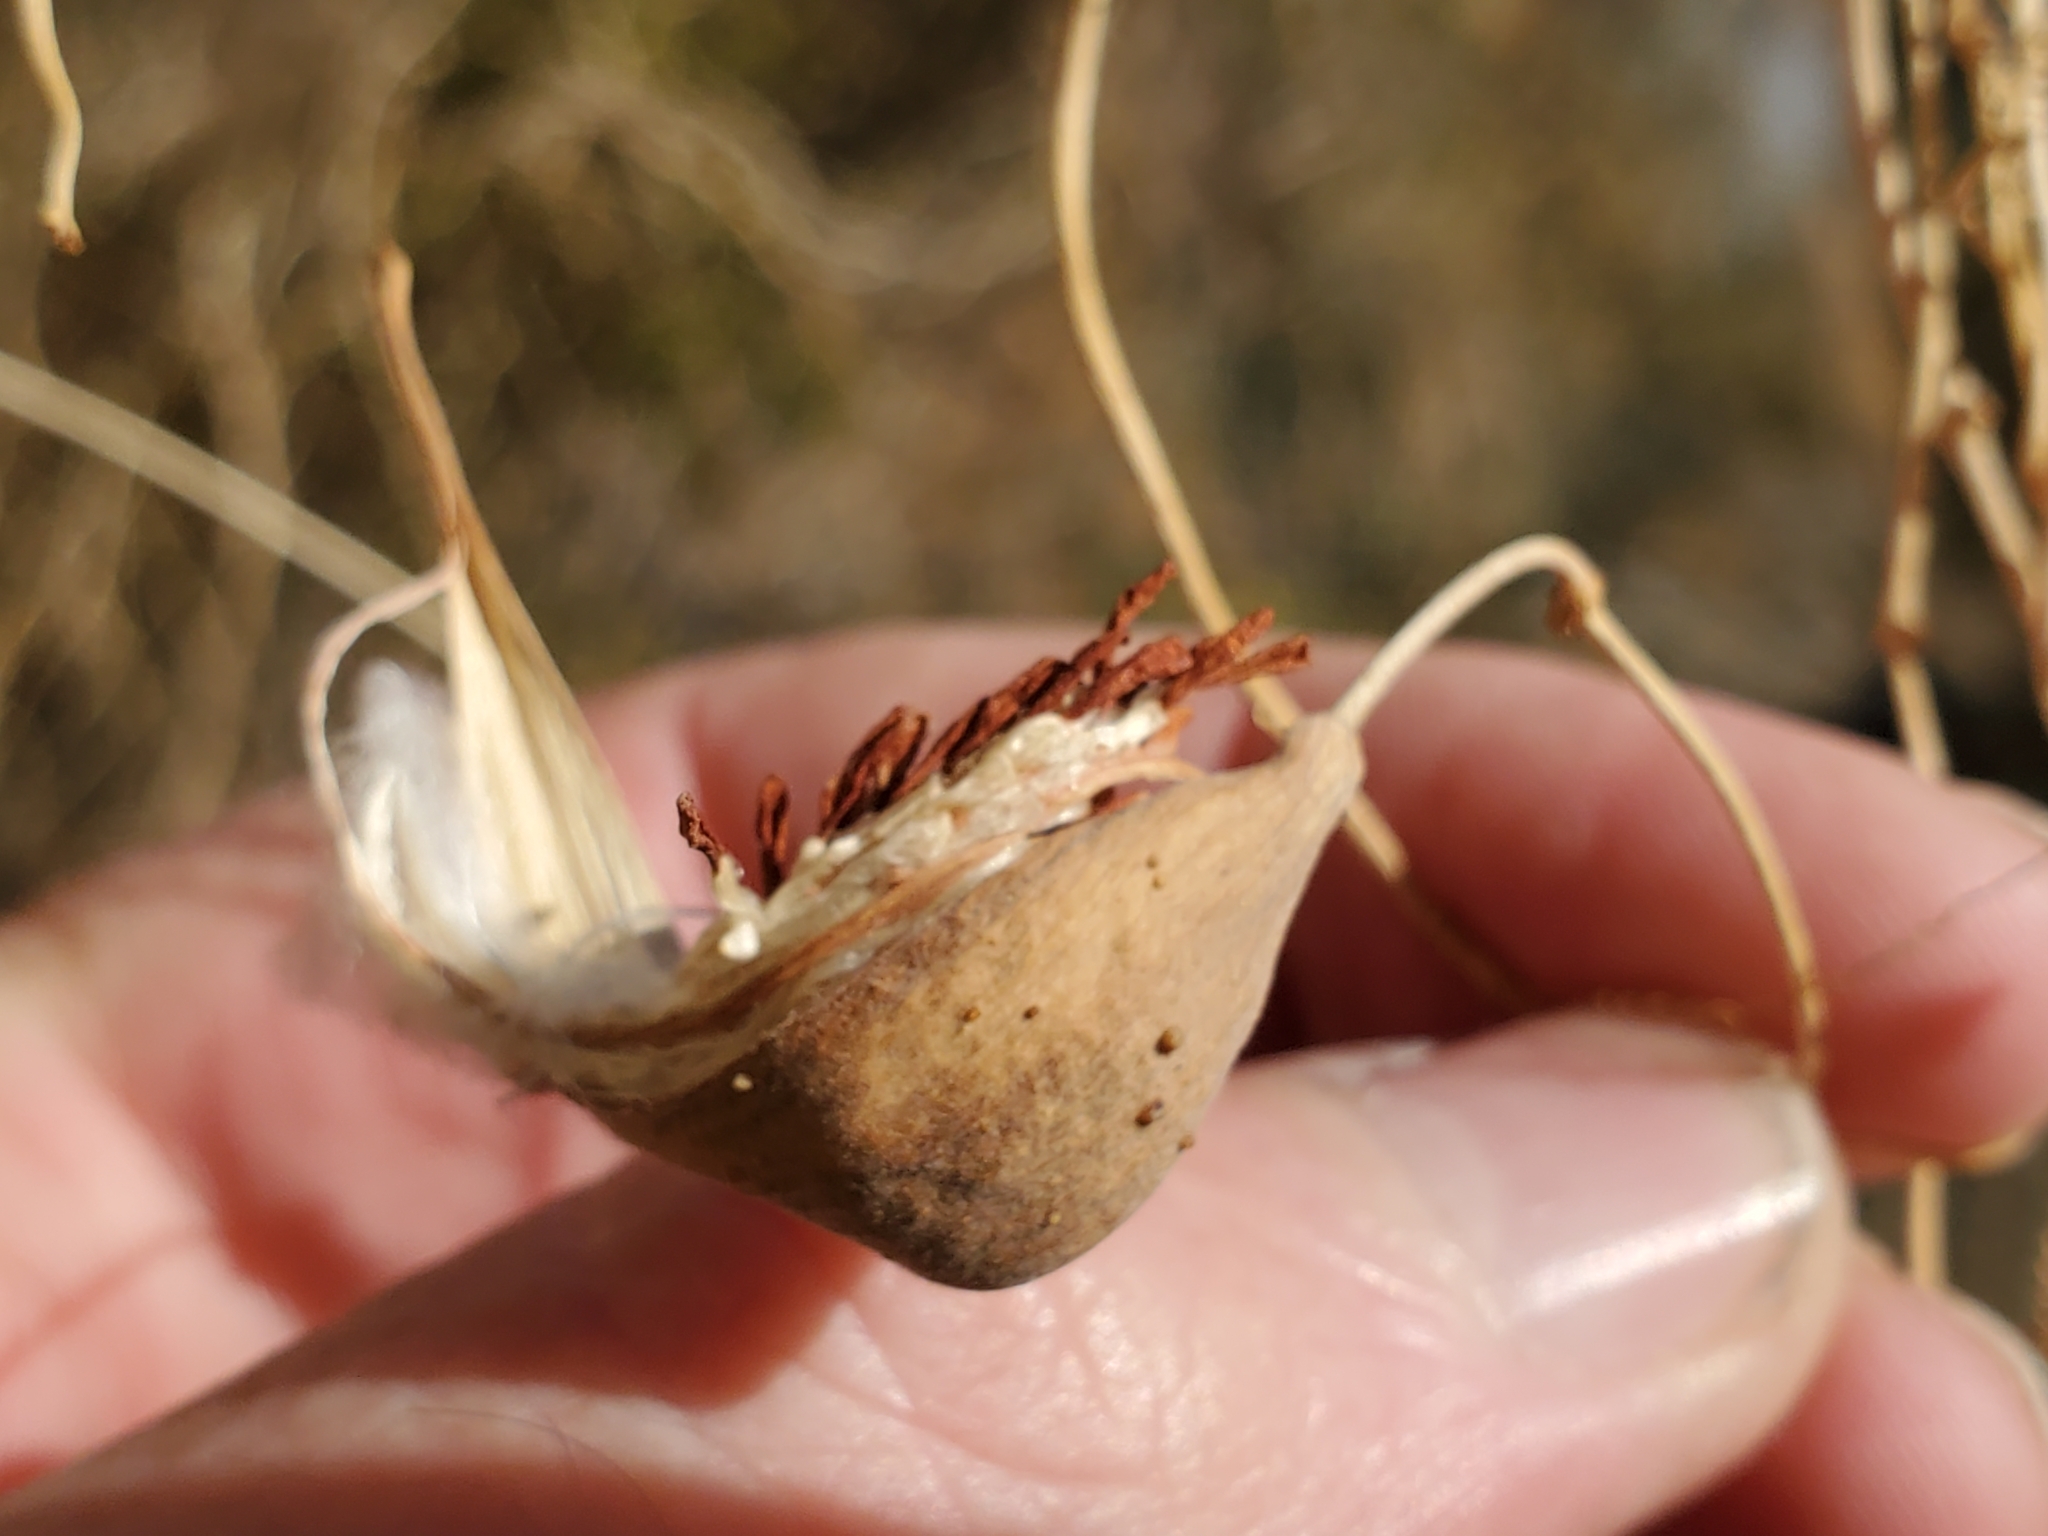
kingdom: Plantae
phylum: Tracheophyta
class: Magnoliopsida
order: Gentianales
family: Apocynaceae
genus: Funastrum
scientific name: Funastrum heterophyllum
